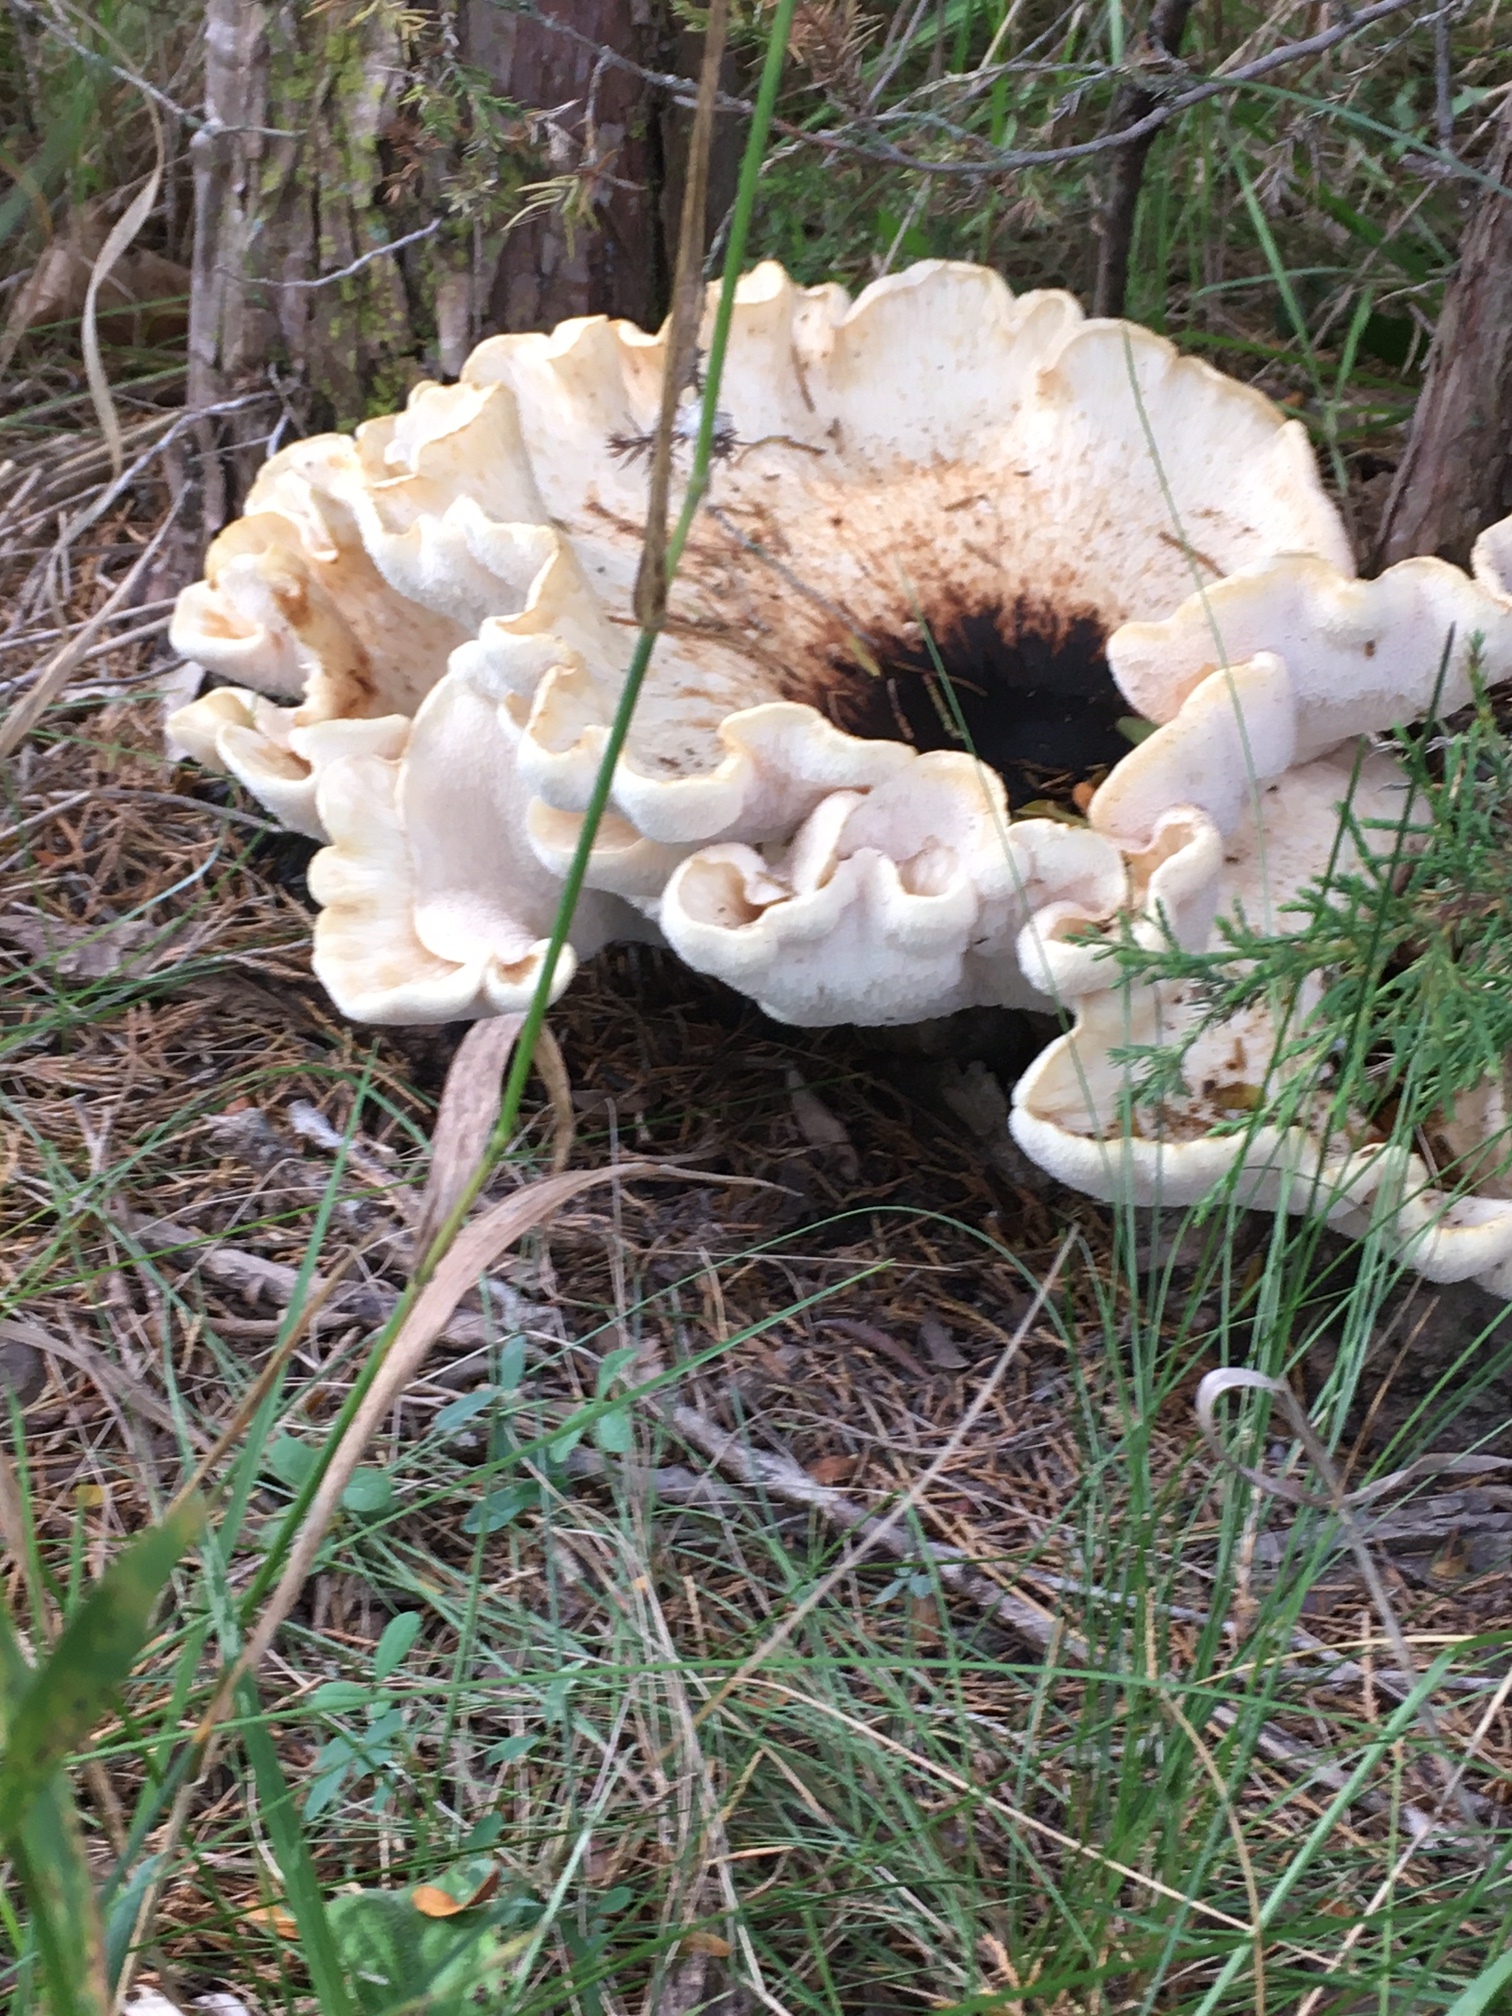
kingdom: Fungi
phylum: Basidiomycota
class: Agaricomycetes
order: Polyporales
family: Polyporaceae
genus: Cerioporus
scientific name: Cerioporus squamosus
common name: Dryad's saddle
